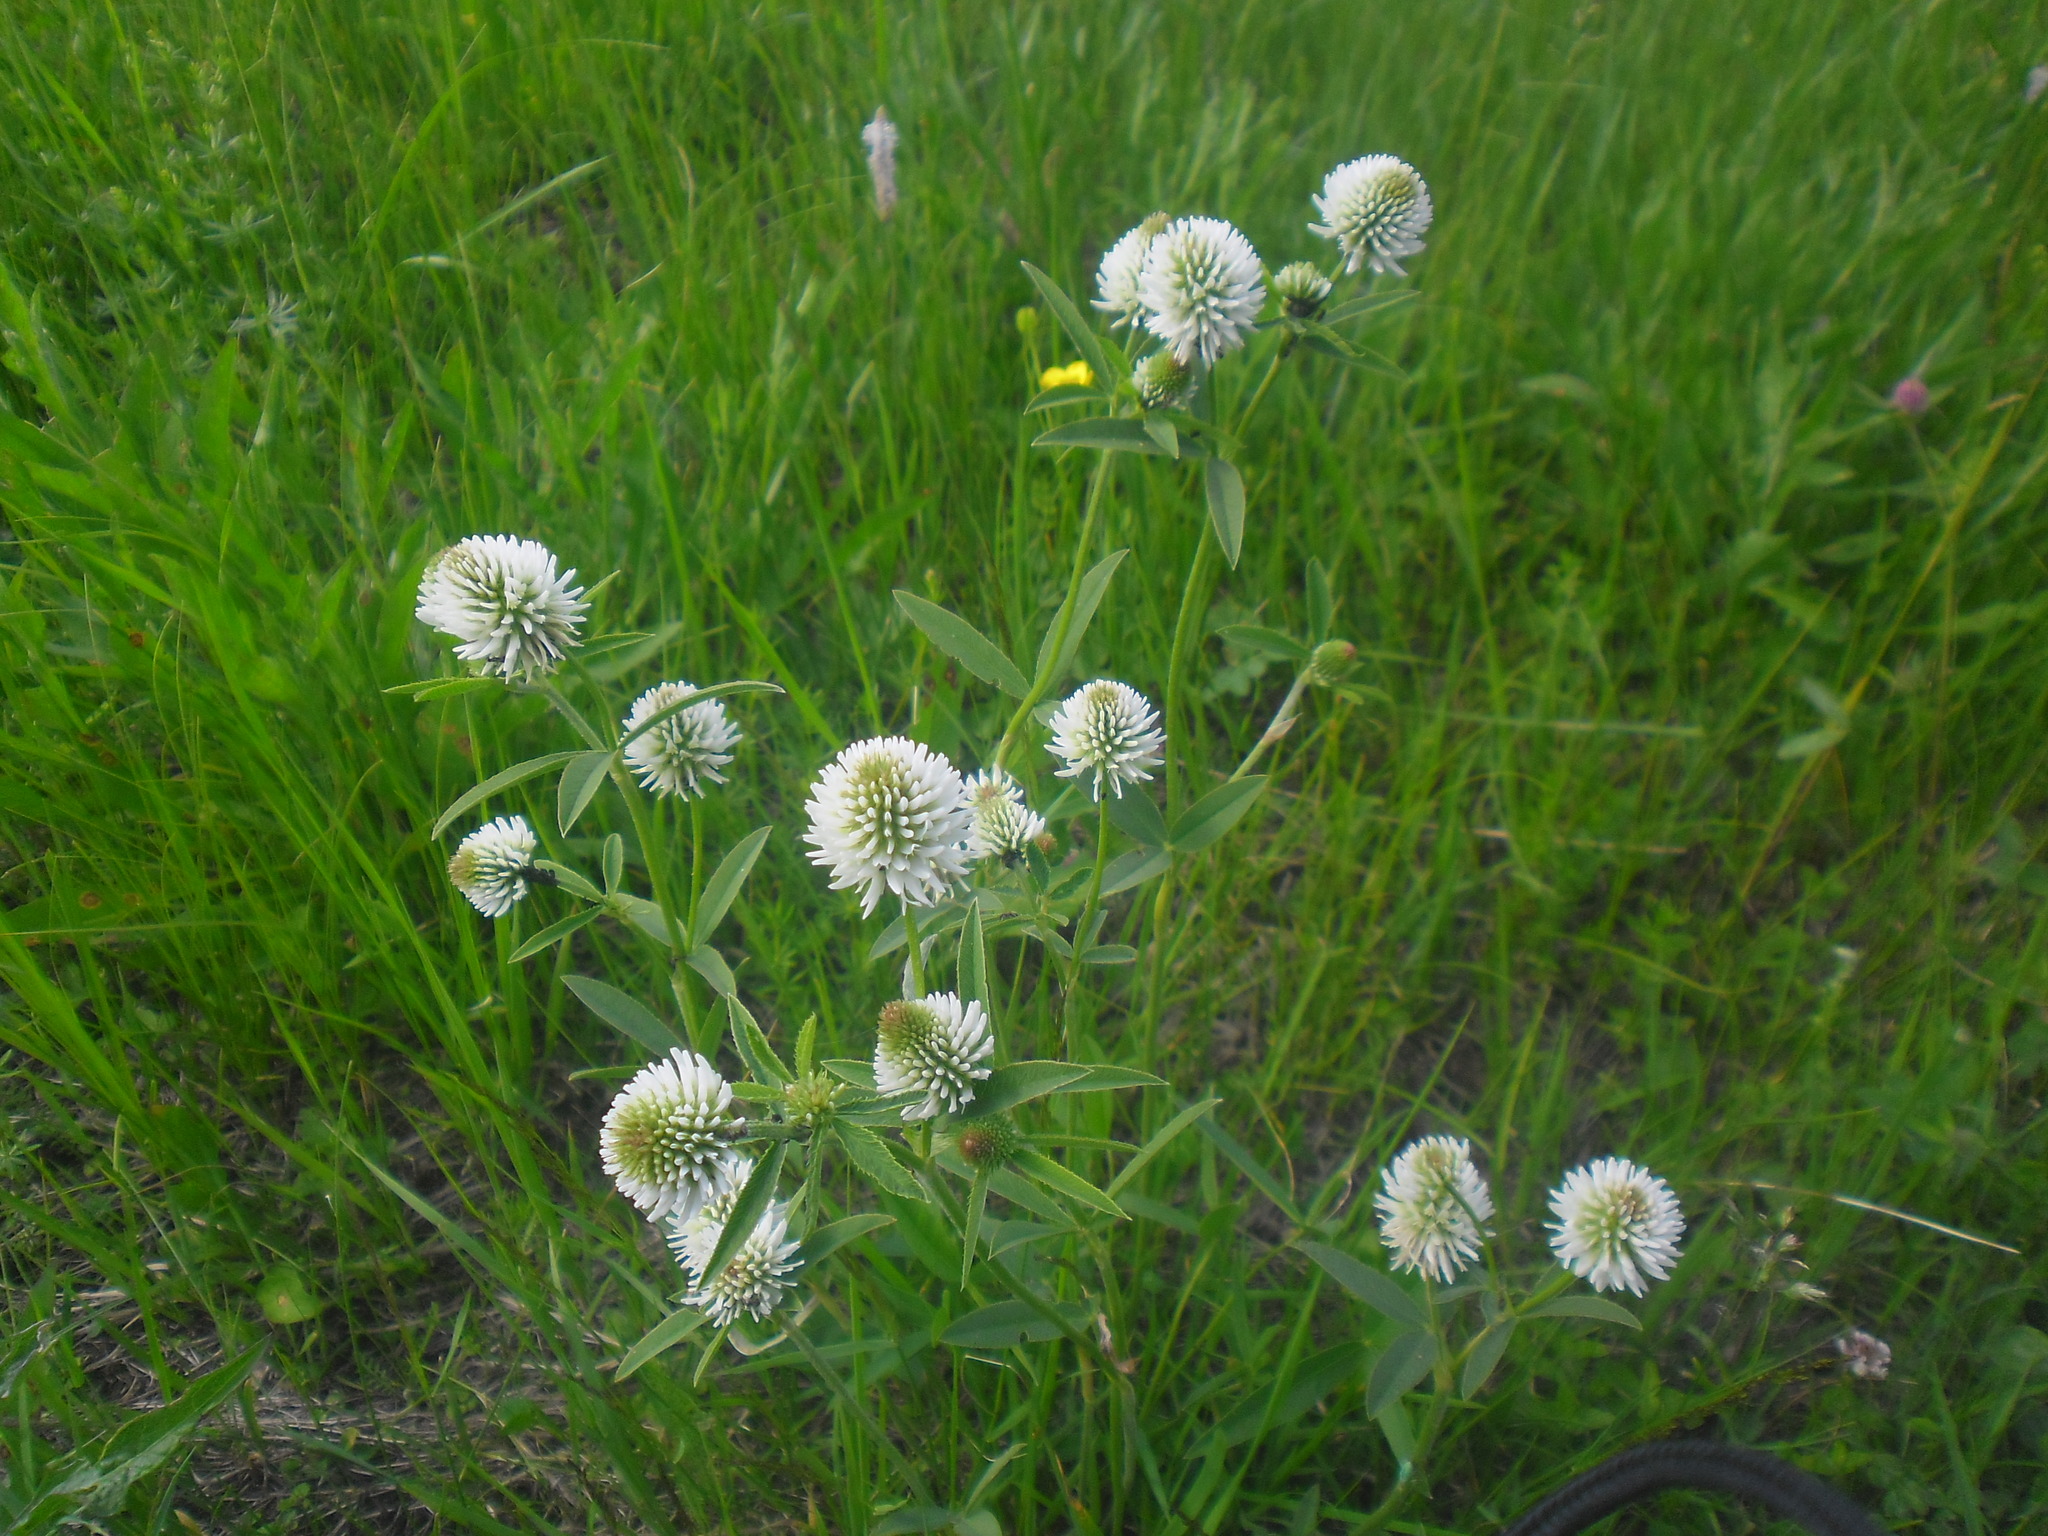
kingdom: Plantae
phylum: Tracheophyta
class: Magnoliopsida
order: Fabales
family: Fabaceae
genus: Trifolium
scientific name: Trifolium montanum
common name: Mountain clover
